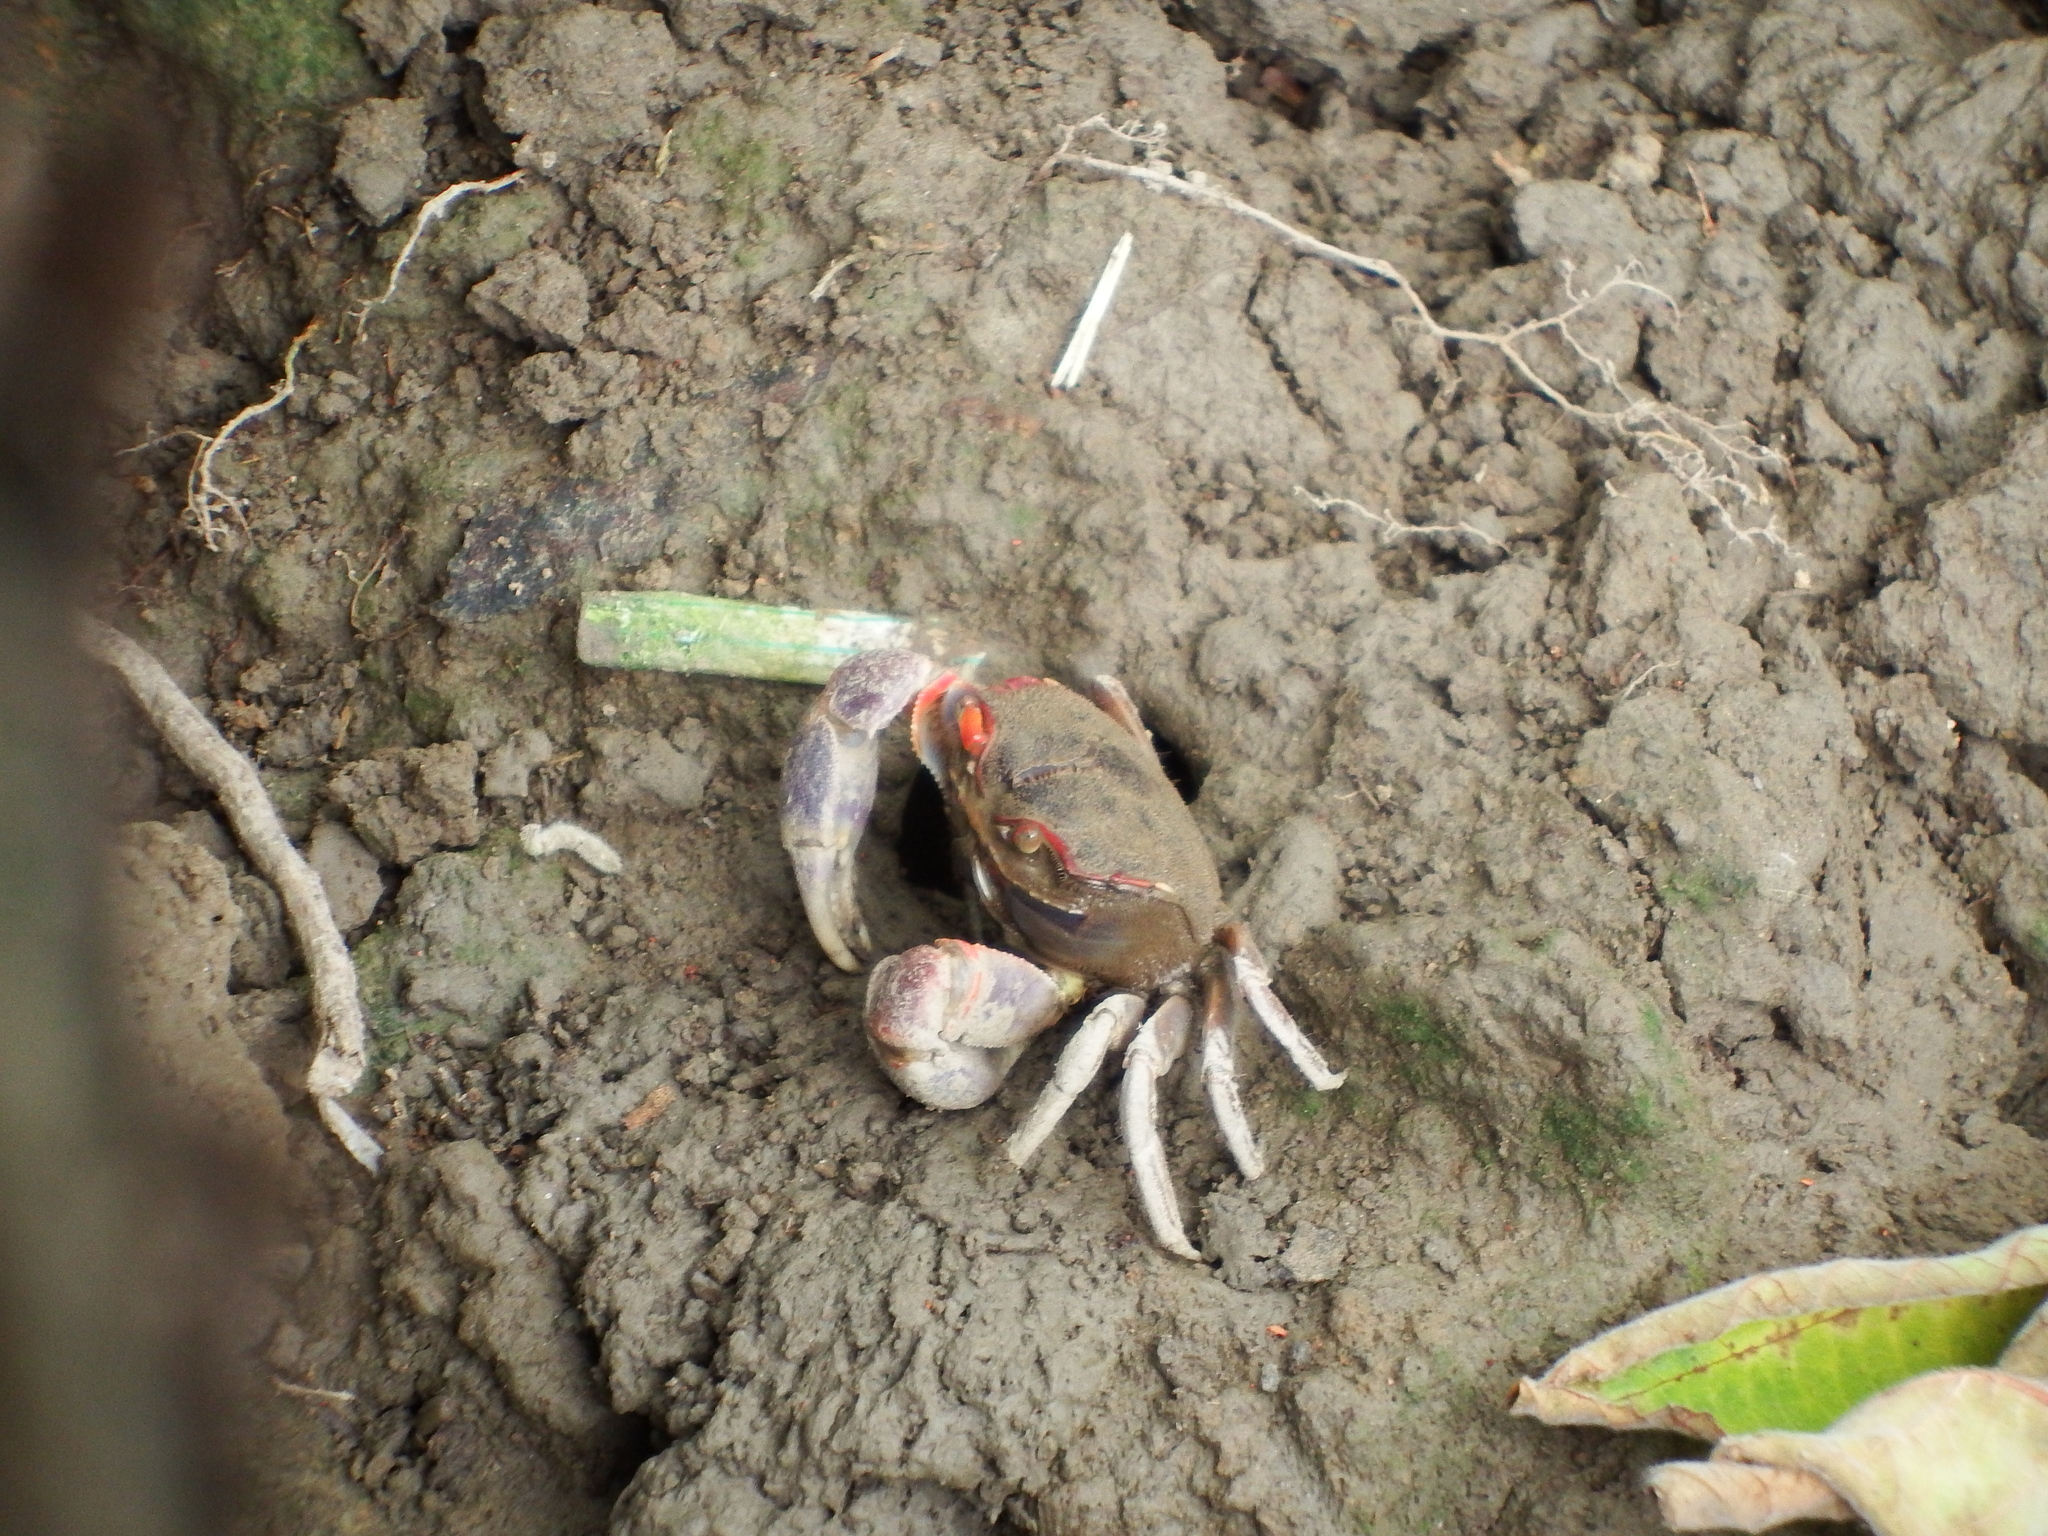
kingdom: Animalia
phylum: Arthropoda
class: Malacostraca
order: Decapoda
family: Varunidae
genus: Chasmagnathus
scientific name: Chasmagnathus convexus
